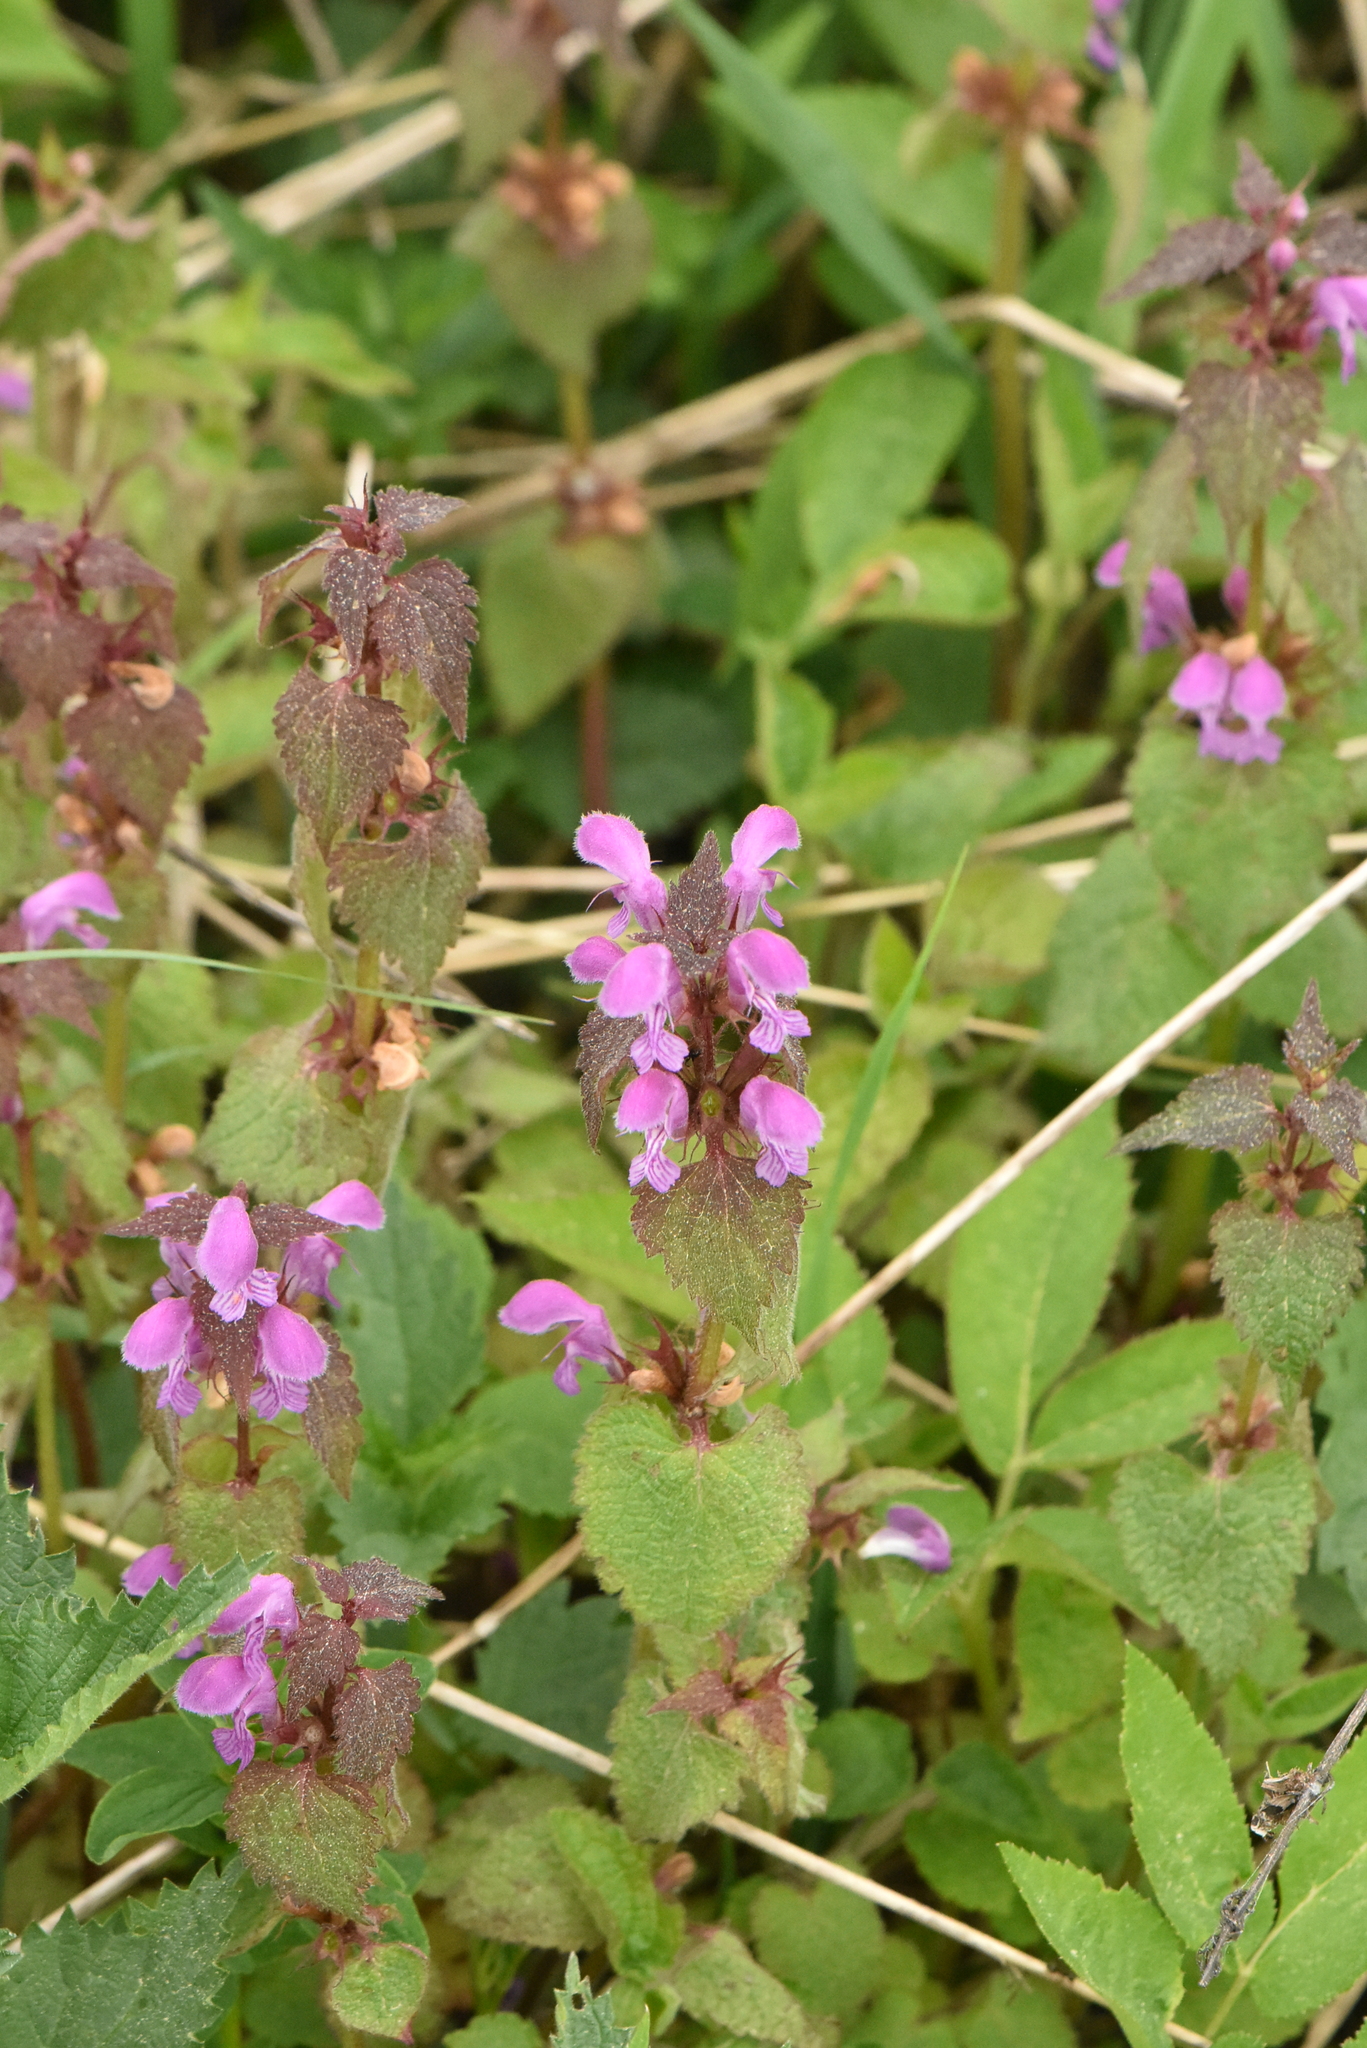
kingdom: Plantae
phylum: Tracheophyta
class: Magnoliopsida
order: Lamiales
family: Lamiaceae
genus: Lamium
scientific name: Lamium maculatum
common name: Spotted dead-nettle
